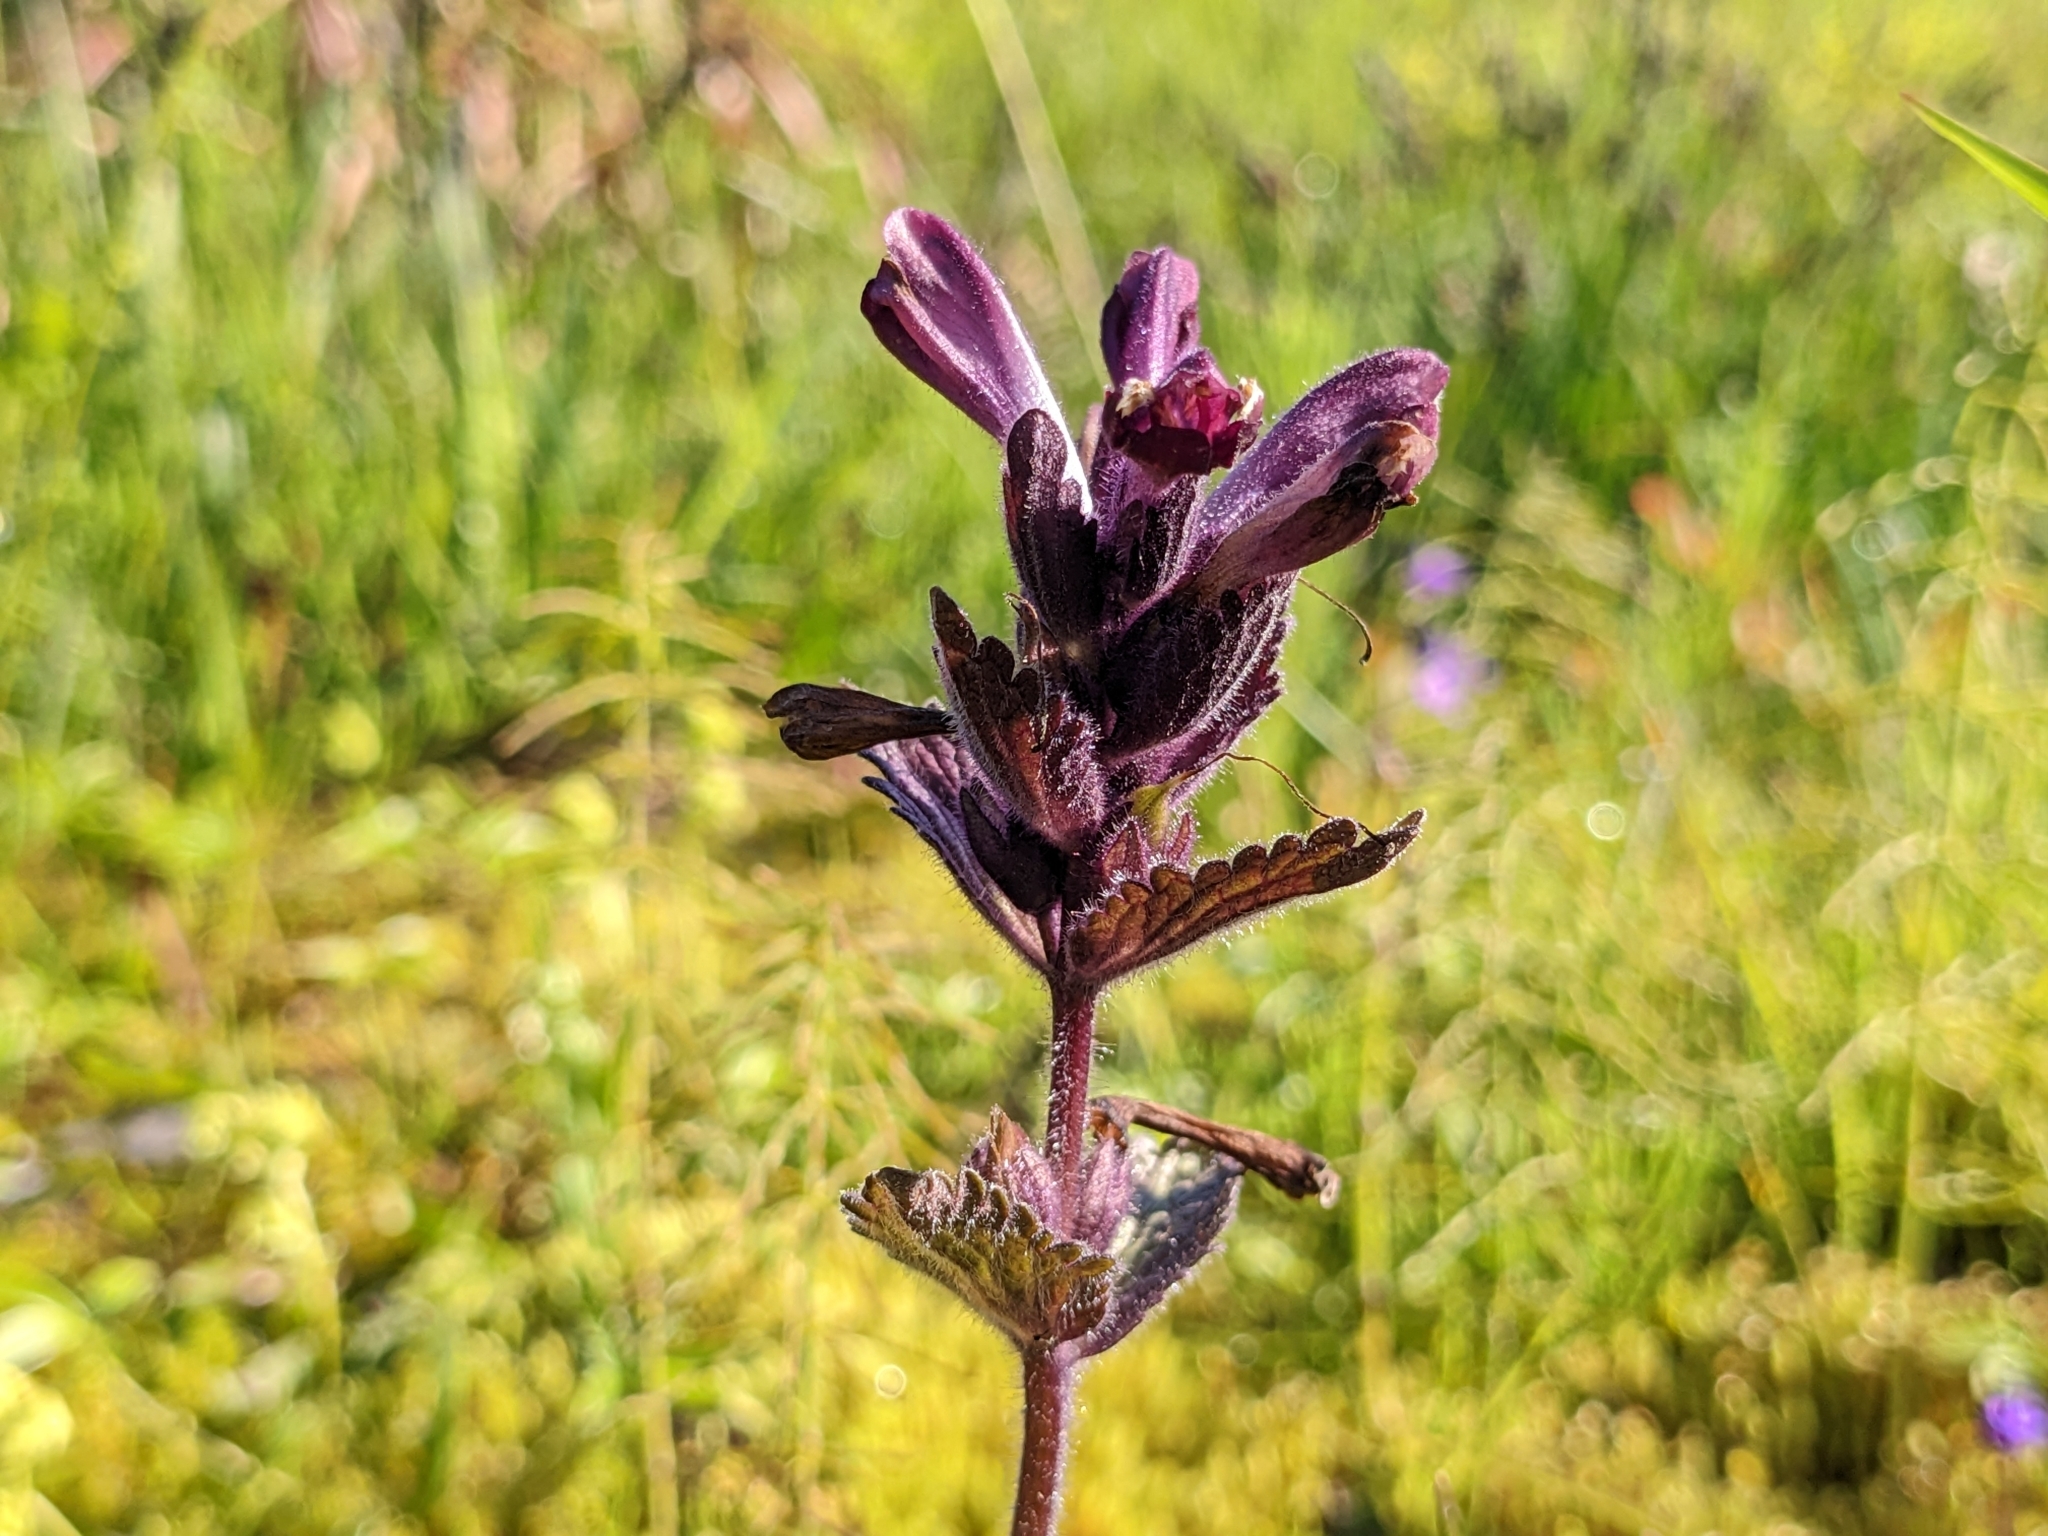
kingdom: Plantae
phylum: Tracheophyta
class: Magnoliopsida
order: Lamiales
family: Orobanchaceae
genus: Bartsia
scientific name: Bartsia alpina
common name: Alpine bartsia
